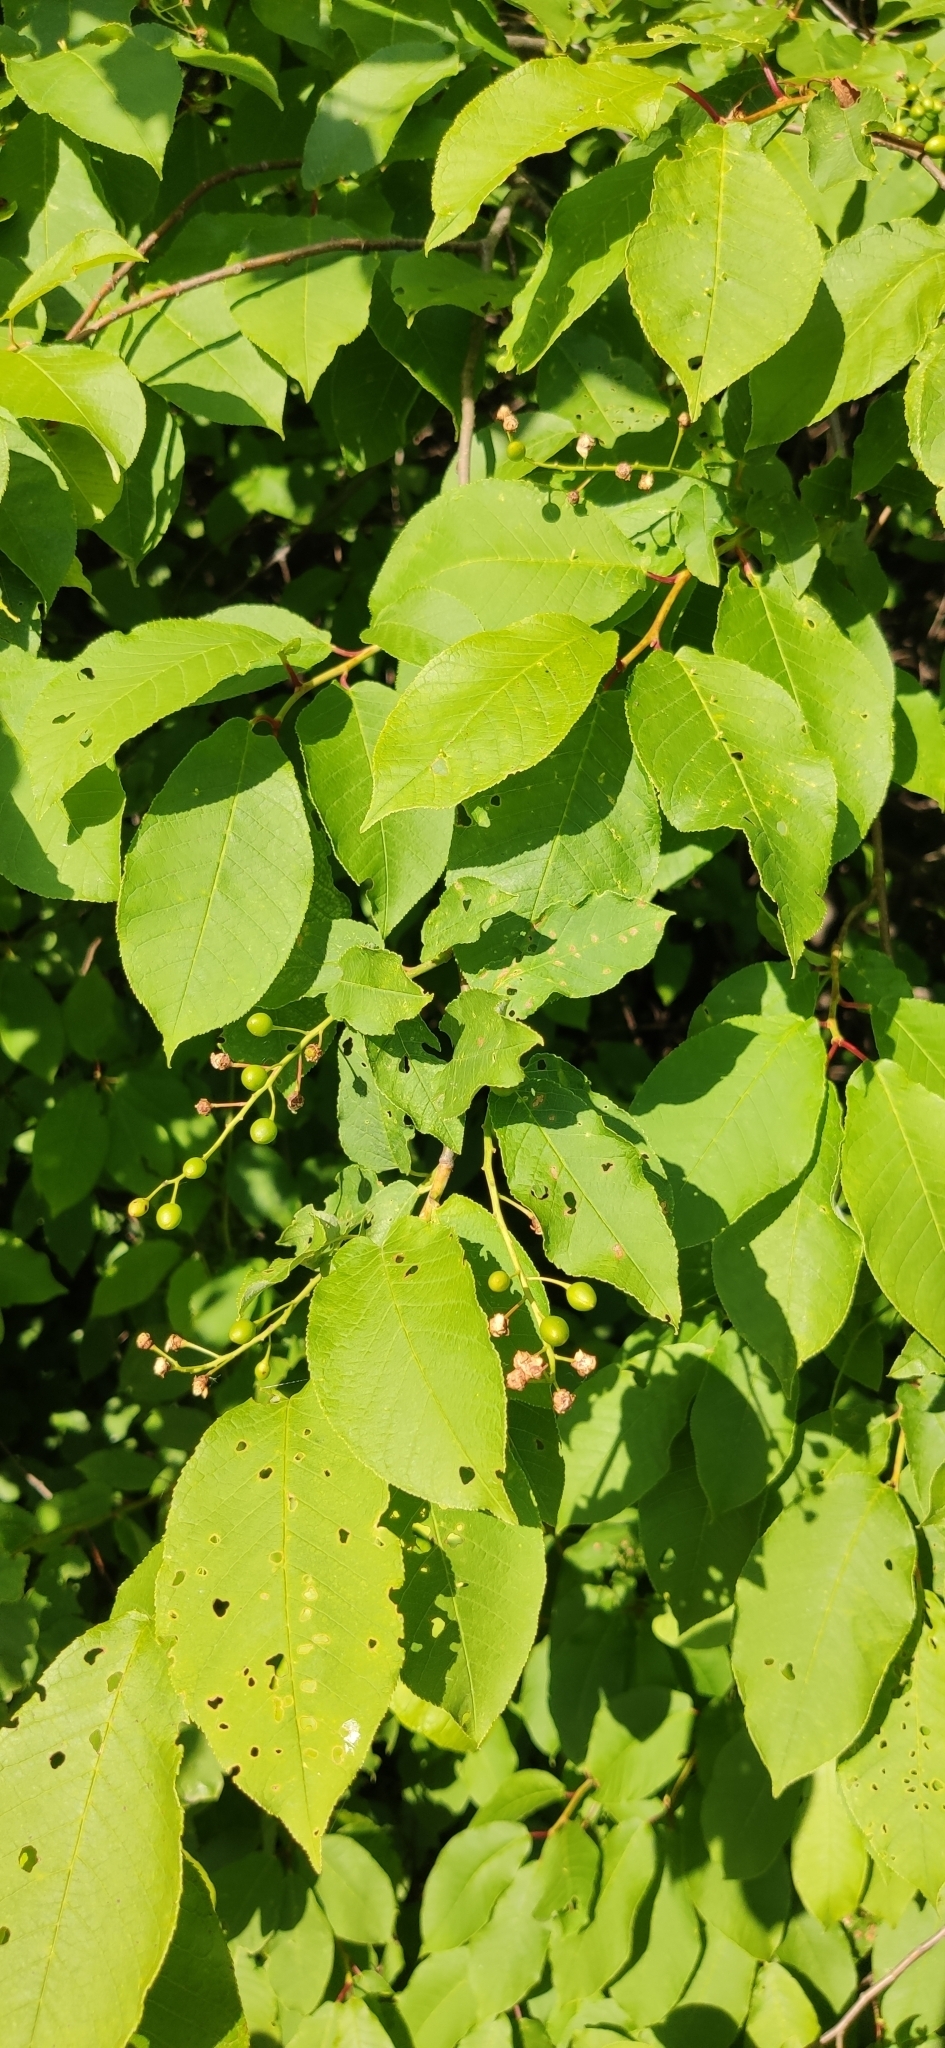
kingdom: Plantae
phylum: Tracheophyta
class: Magnoliopsida
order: Rosales
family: Rosaceae
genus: Prunus
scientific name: Prunus padus
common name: Bird cherry
